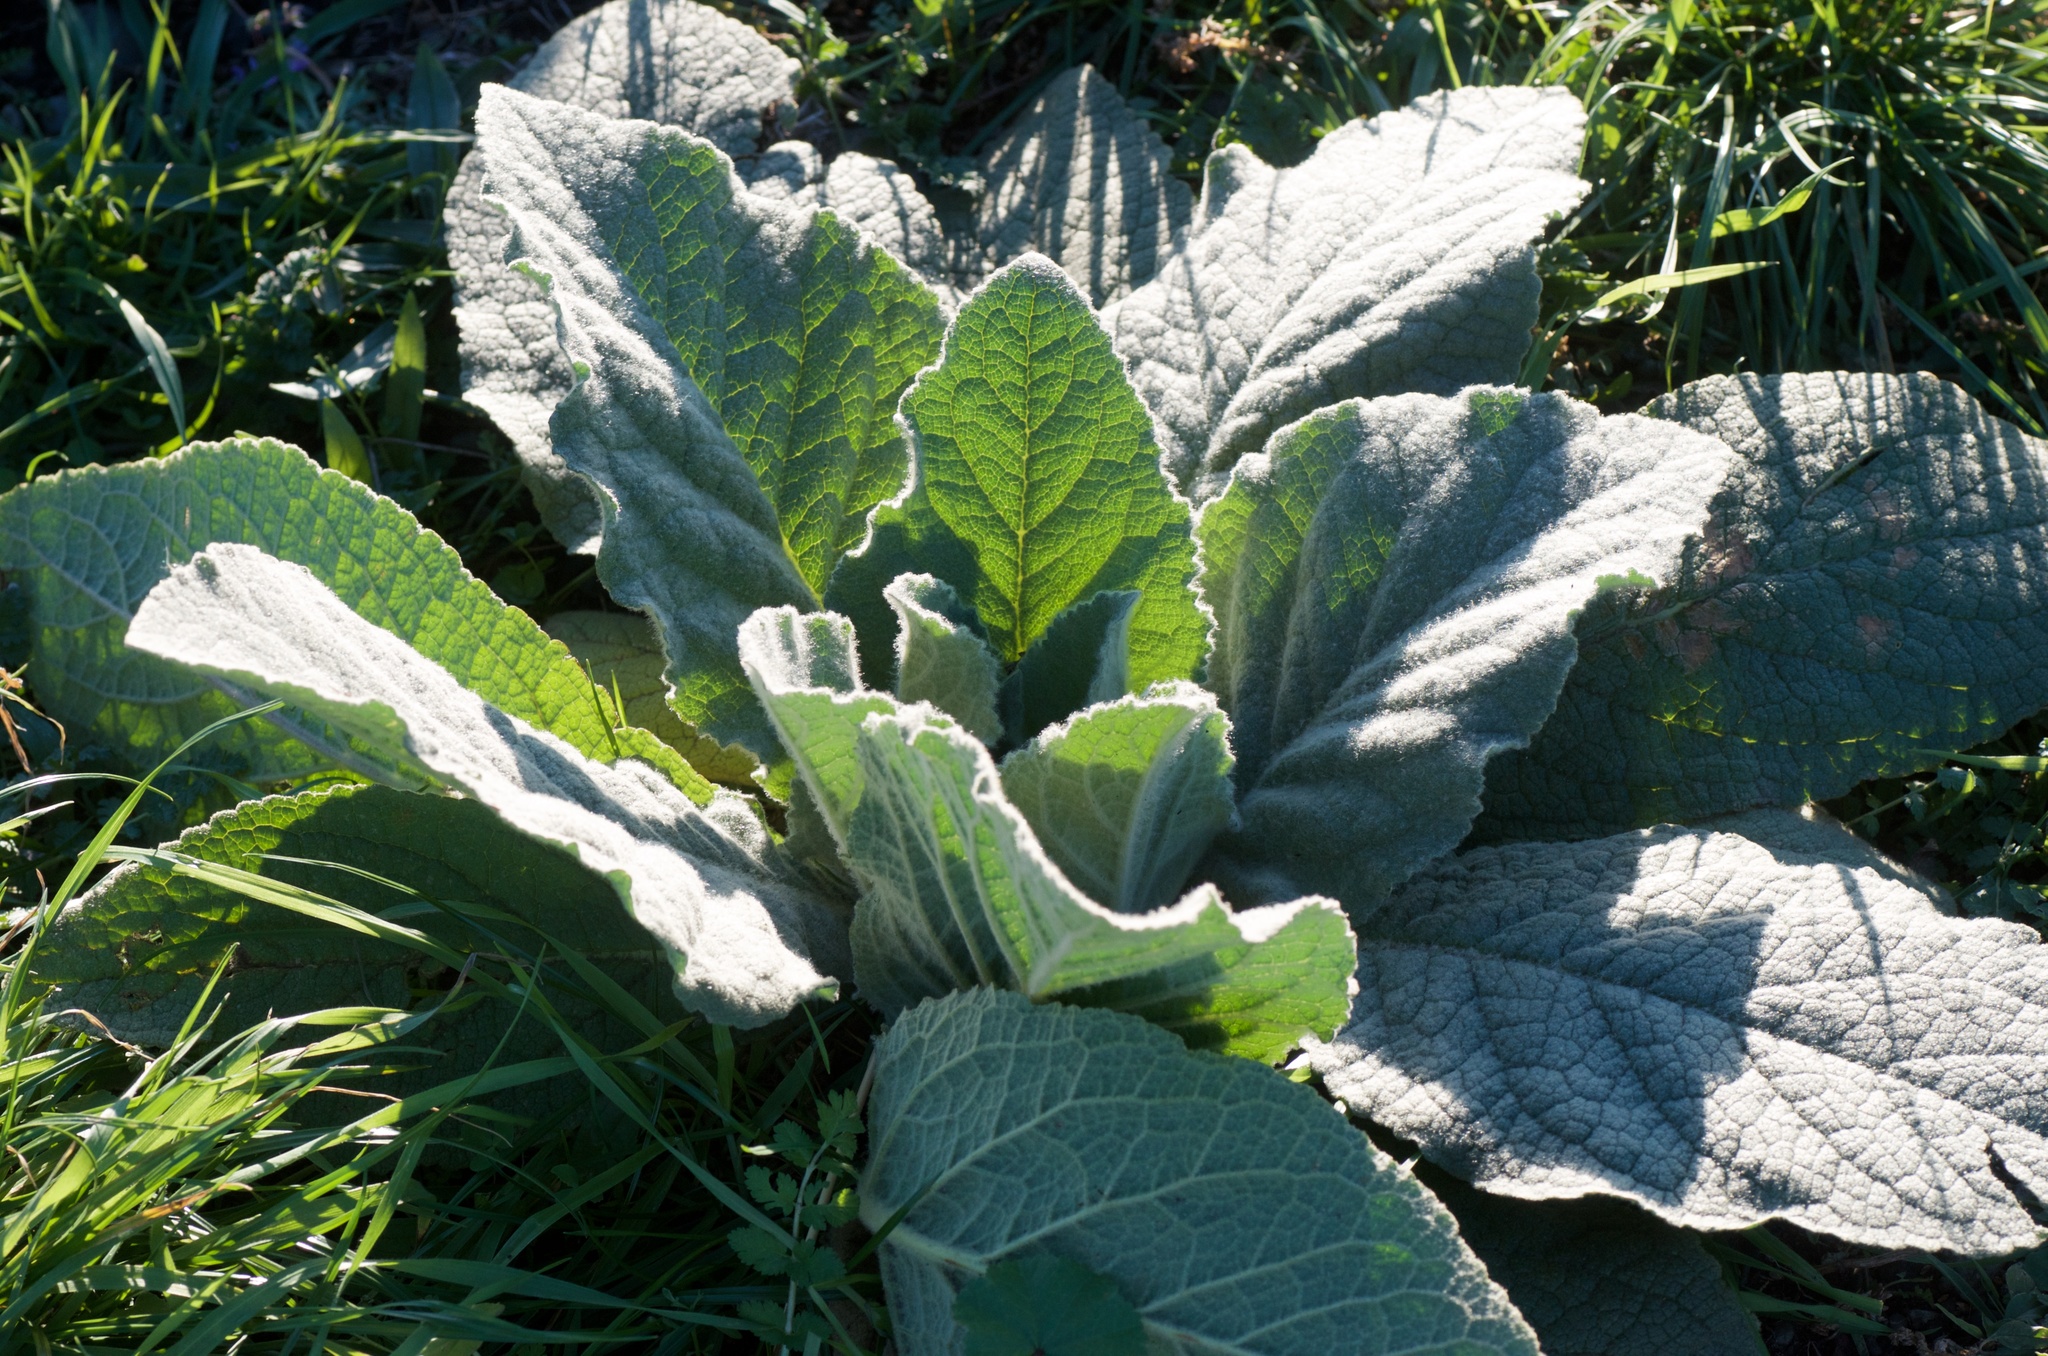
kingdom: Plantae
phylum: Tracheophyta
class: Magnoliopsida
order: Lamiales
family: Scrophulariaceae
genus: Verbascum
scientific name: Verbascum thapsus
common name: Common mullein
